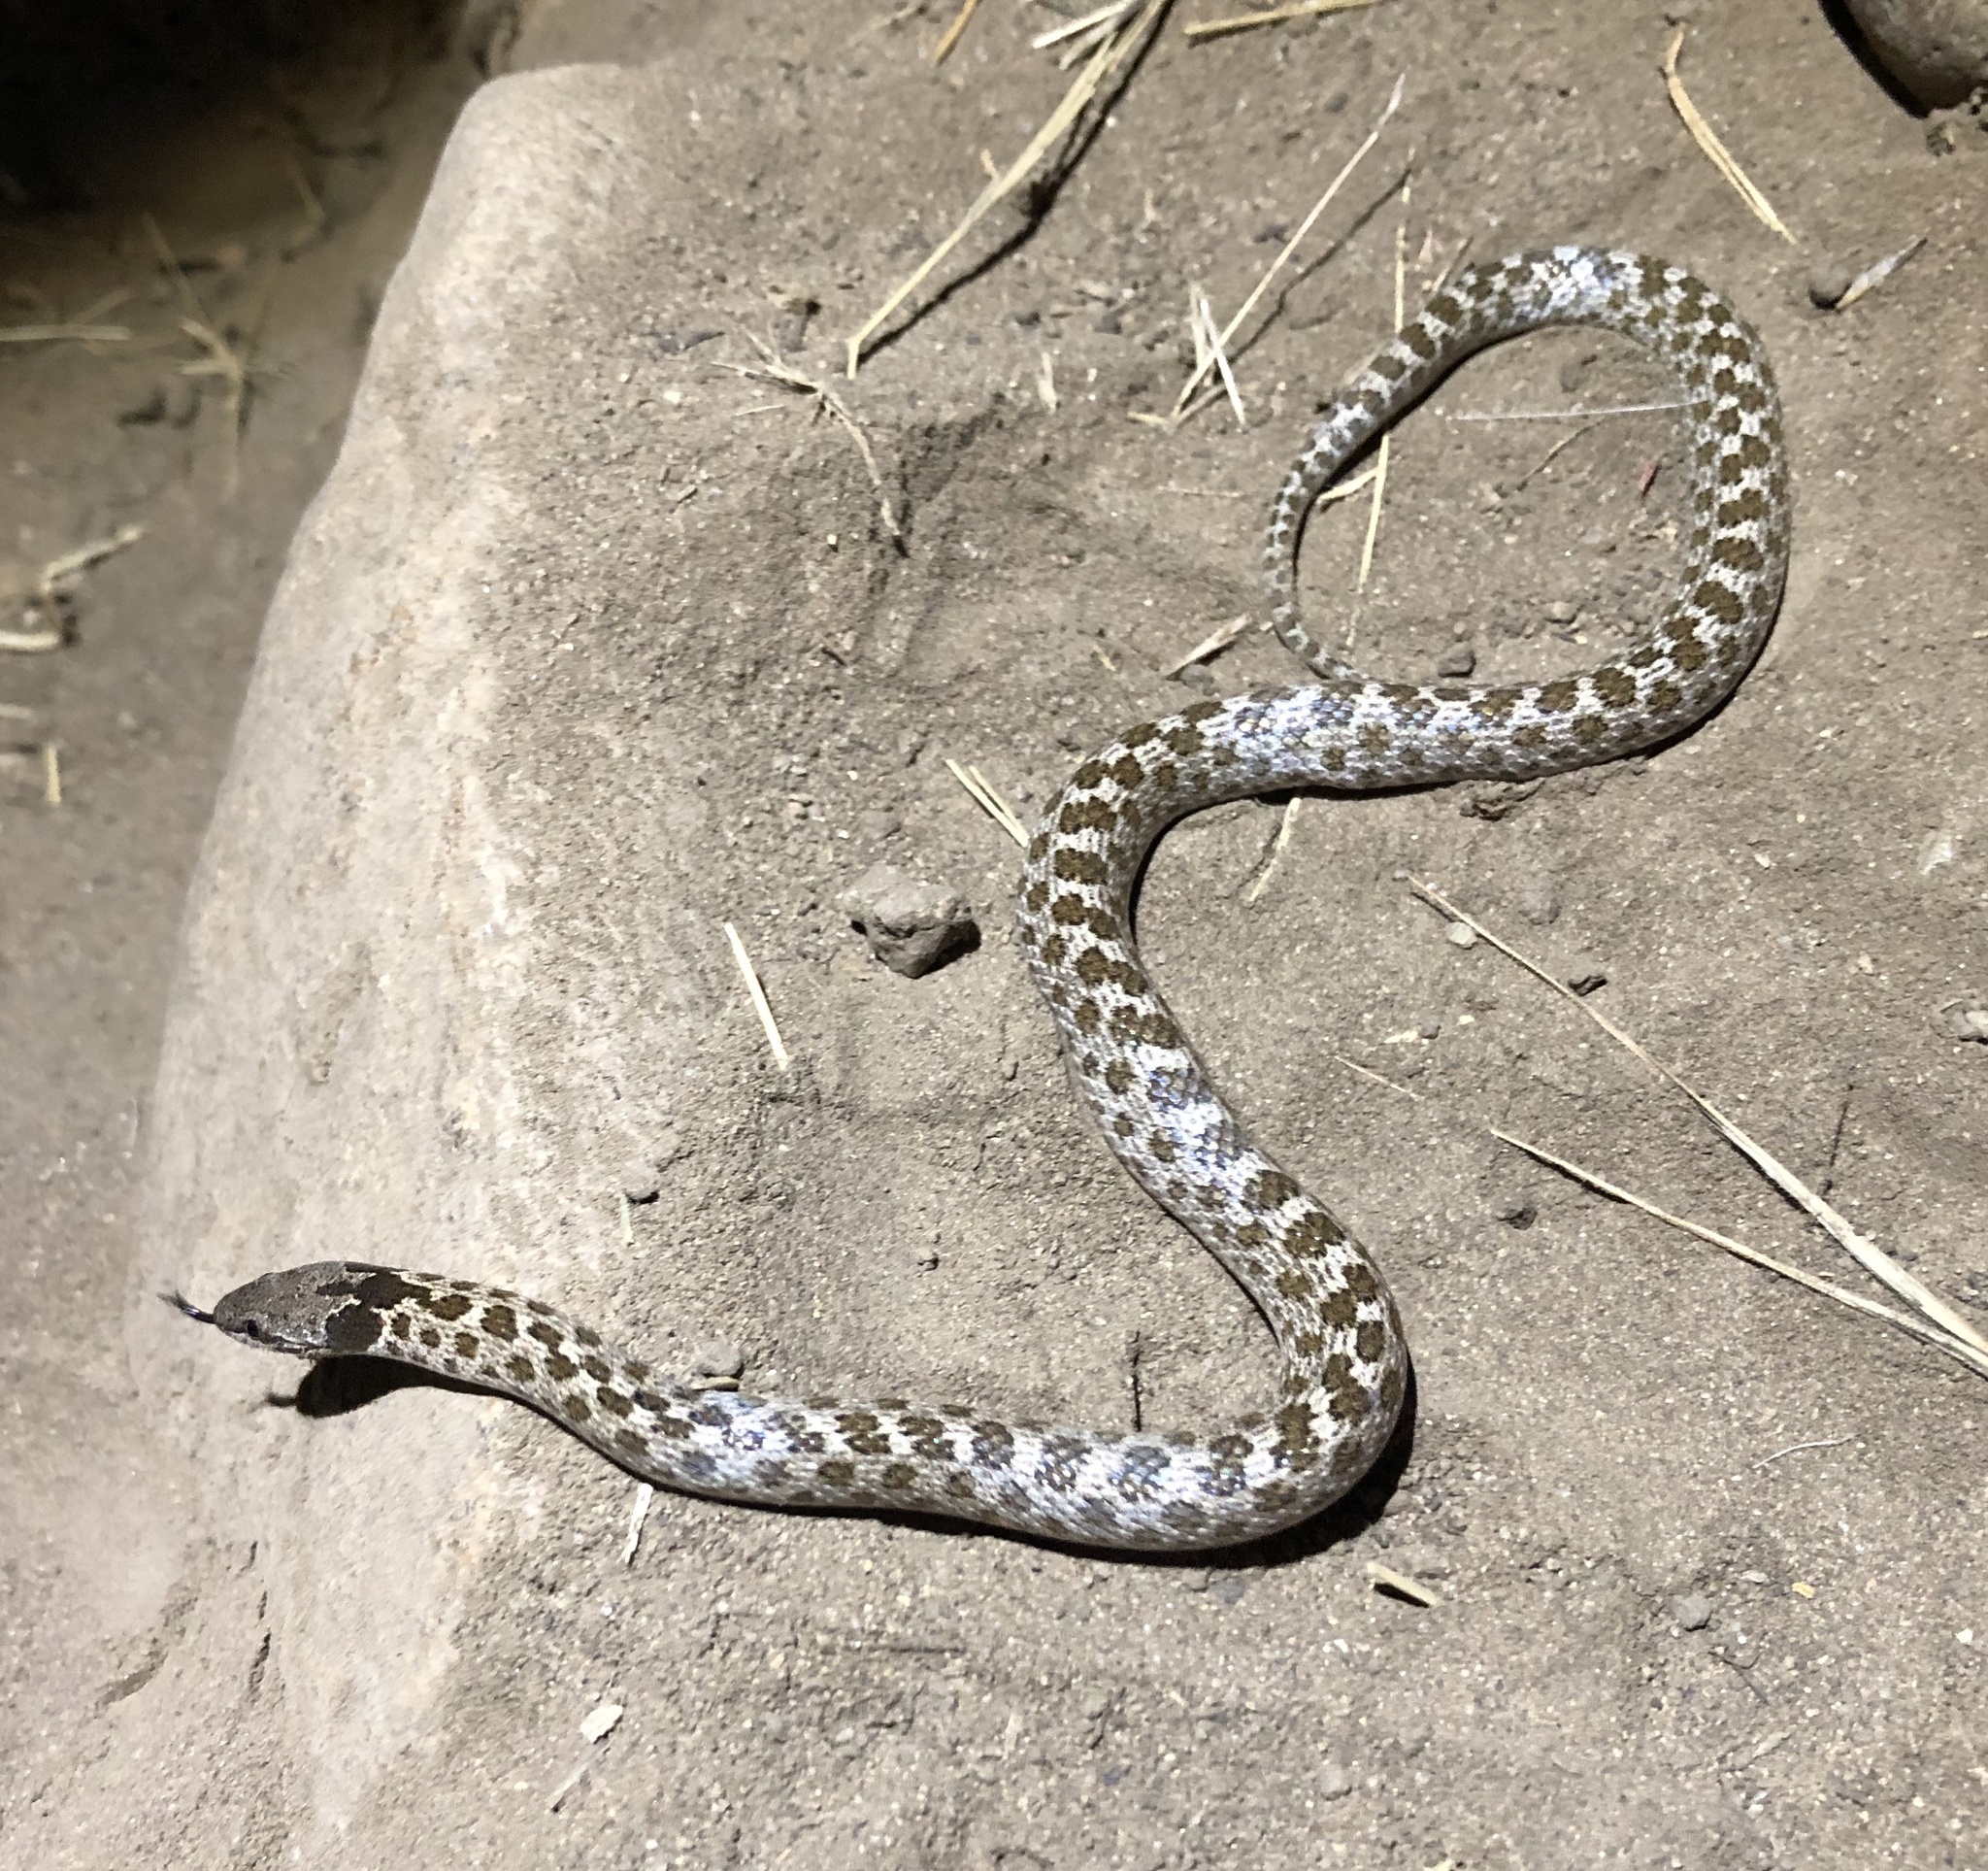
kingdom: Animalia
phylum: Chordata
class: Squamata
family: Colubridae
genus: Hypsiglena
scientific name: Hypsiglena ochrorhynchus
